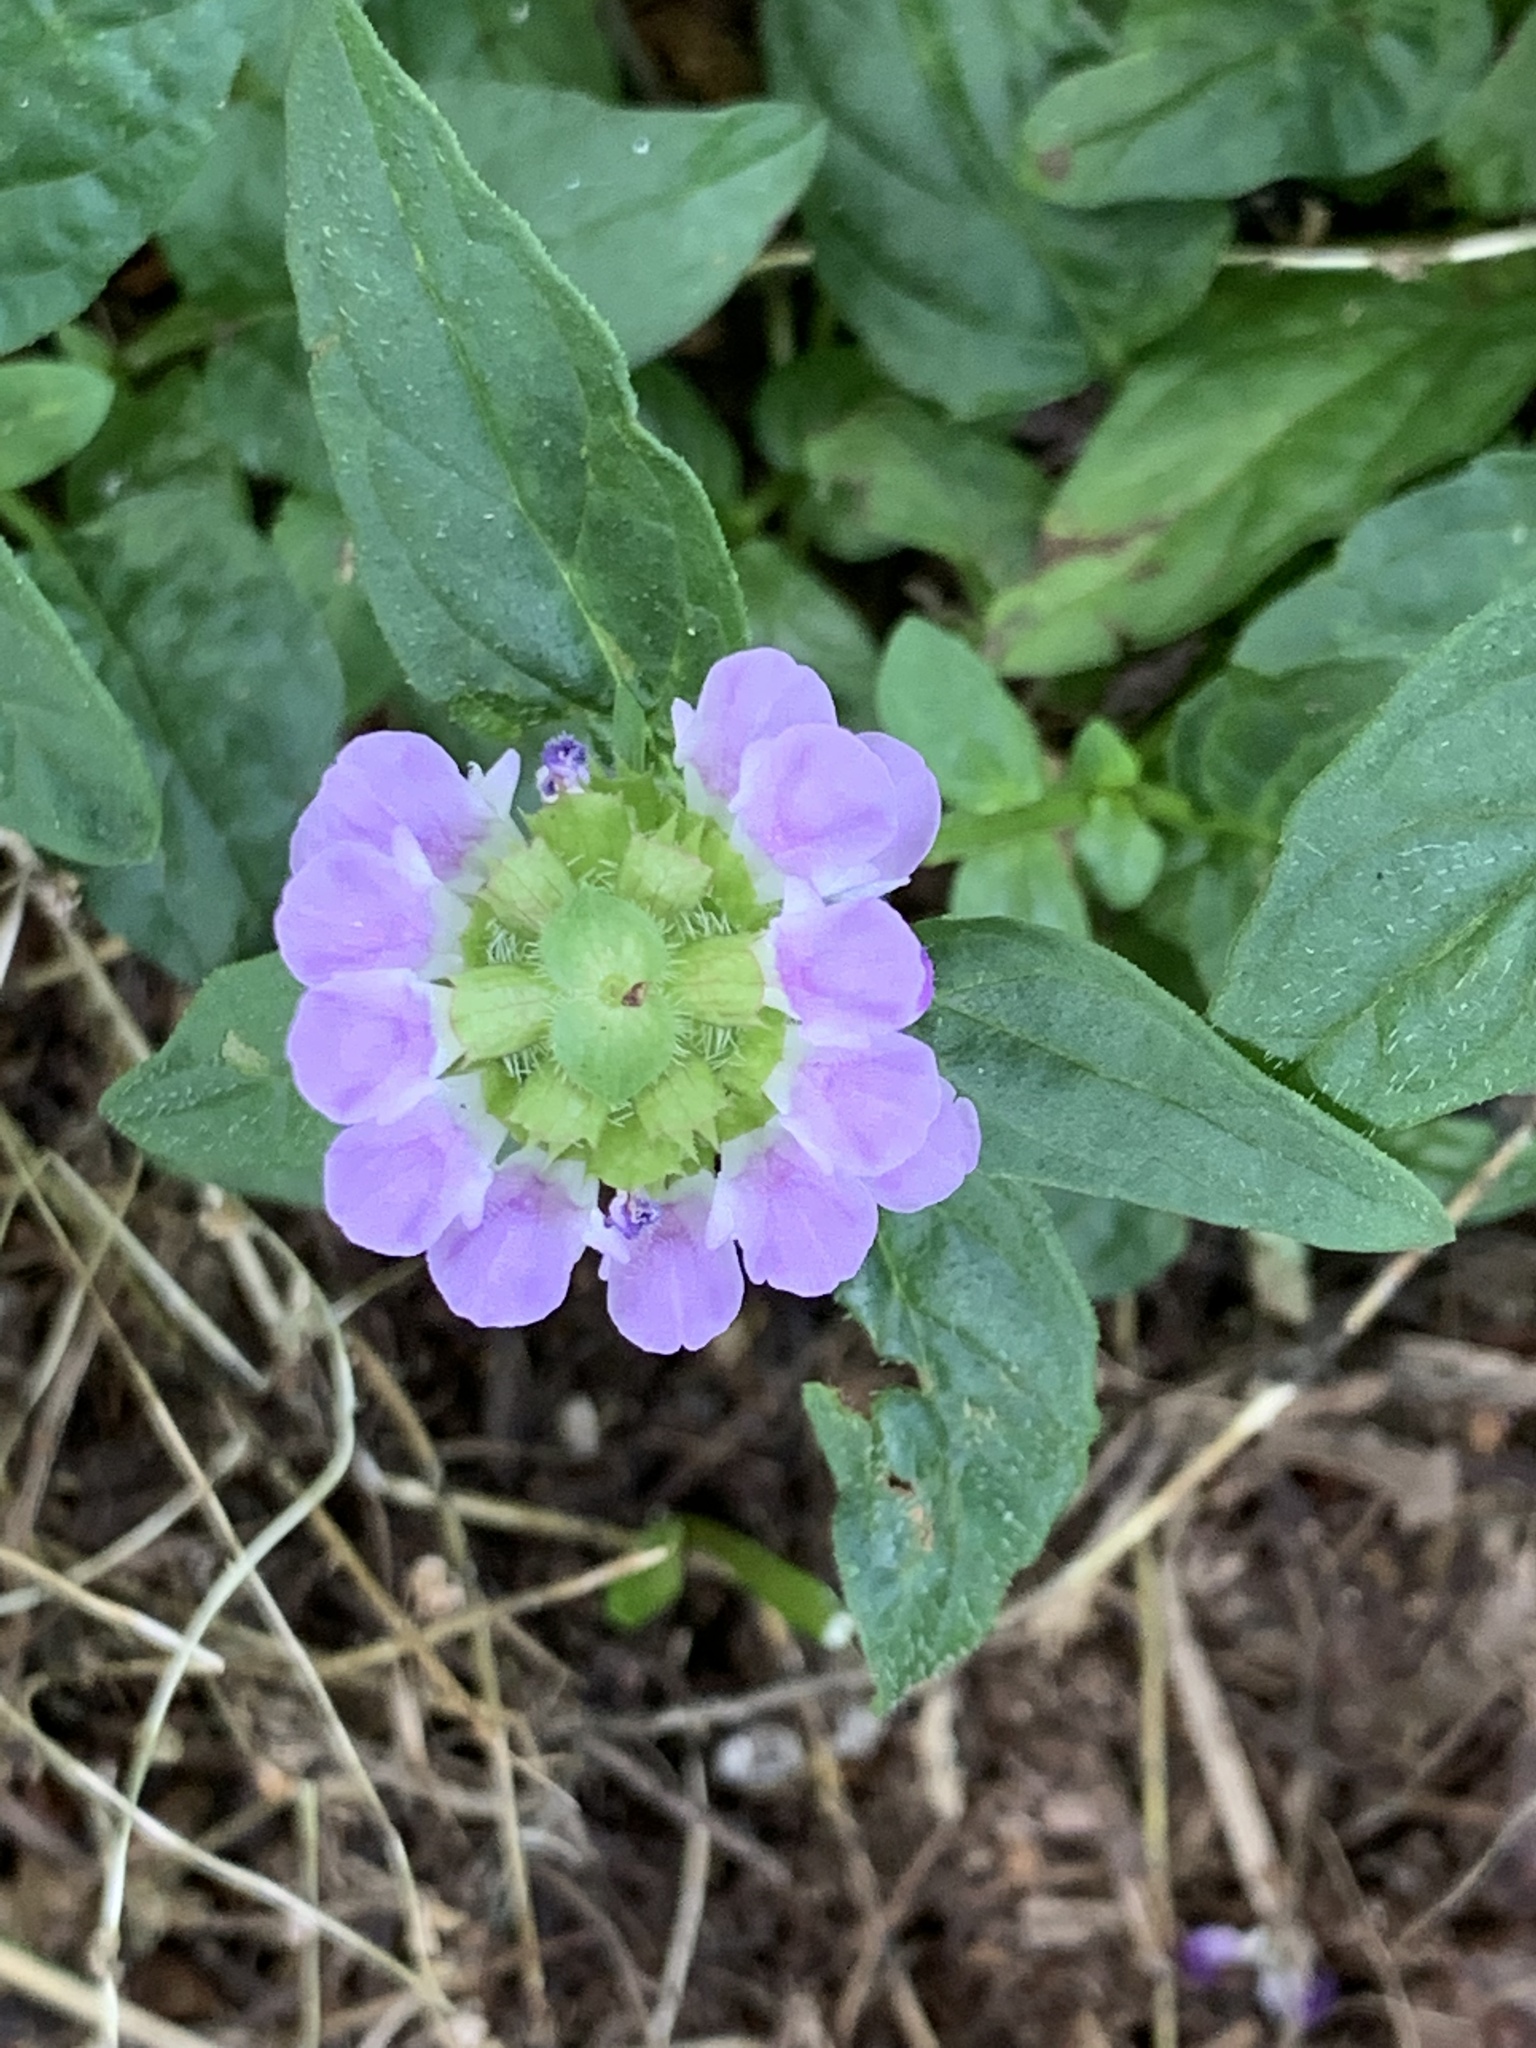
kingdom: Plantae
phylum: Tracheophyta
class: Magnoliopsida
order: Lamiales
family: Lamiaceae
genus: Prunella
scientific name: Prunella vulgaris
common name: Heal-all
